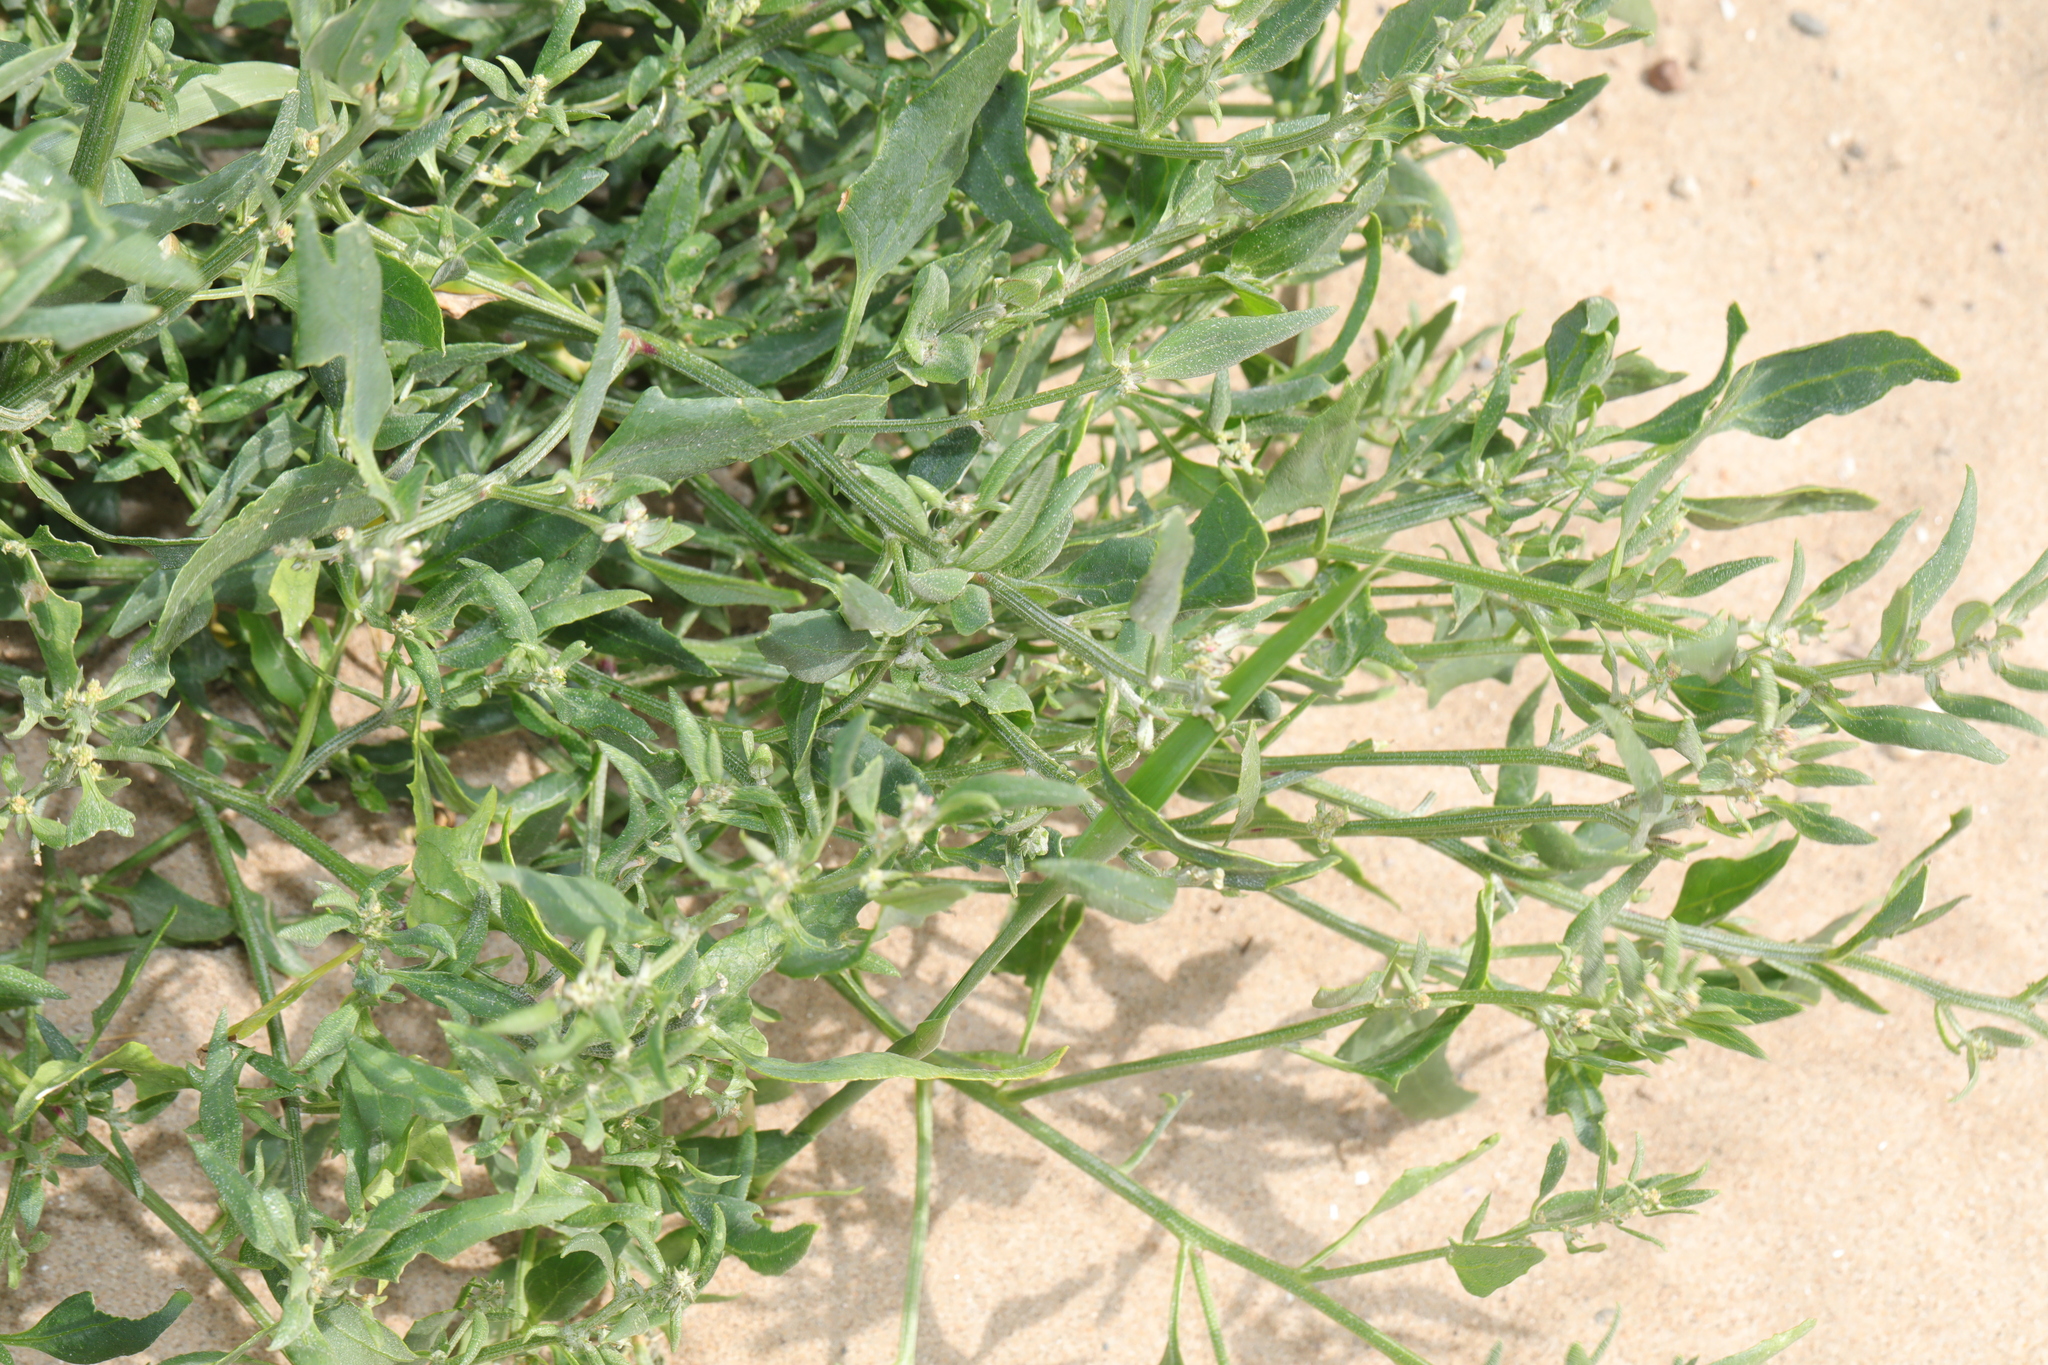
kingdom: Plantae
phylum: Tracheophyta
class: Magnoliopsida
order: Caryophyllales
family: Amaranthaceae
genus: Atriplex
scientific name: Atriplex prostrata
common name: Spear-leaved orache
